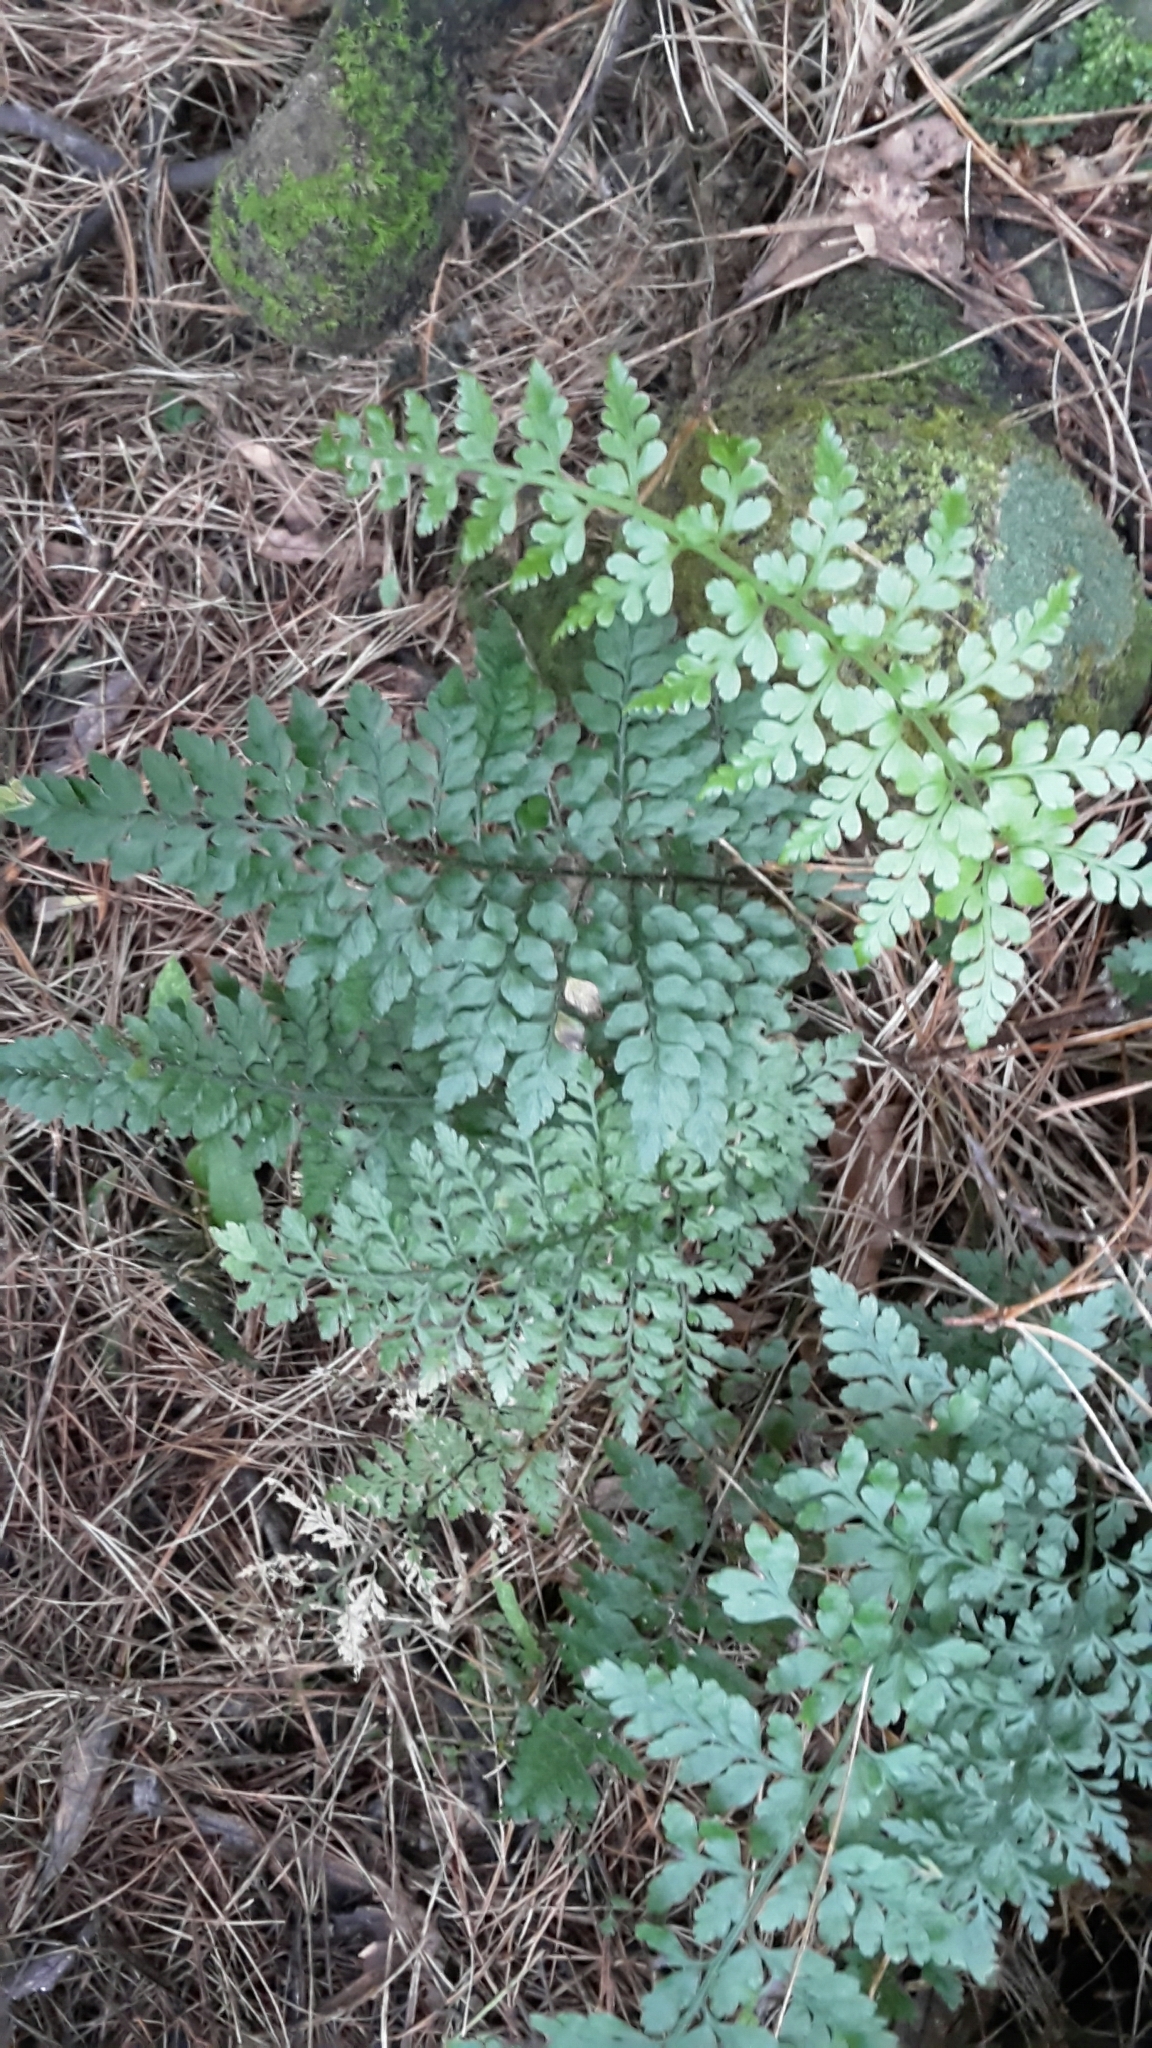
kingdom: Plantae
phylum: Tracheophyta
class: Polypodiopsida
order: Polypodiales
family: Aspleniaceae
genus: Asplenium
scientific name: Asplenium hookerianum
